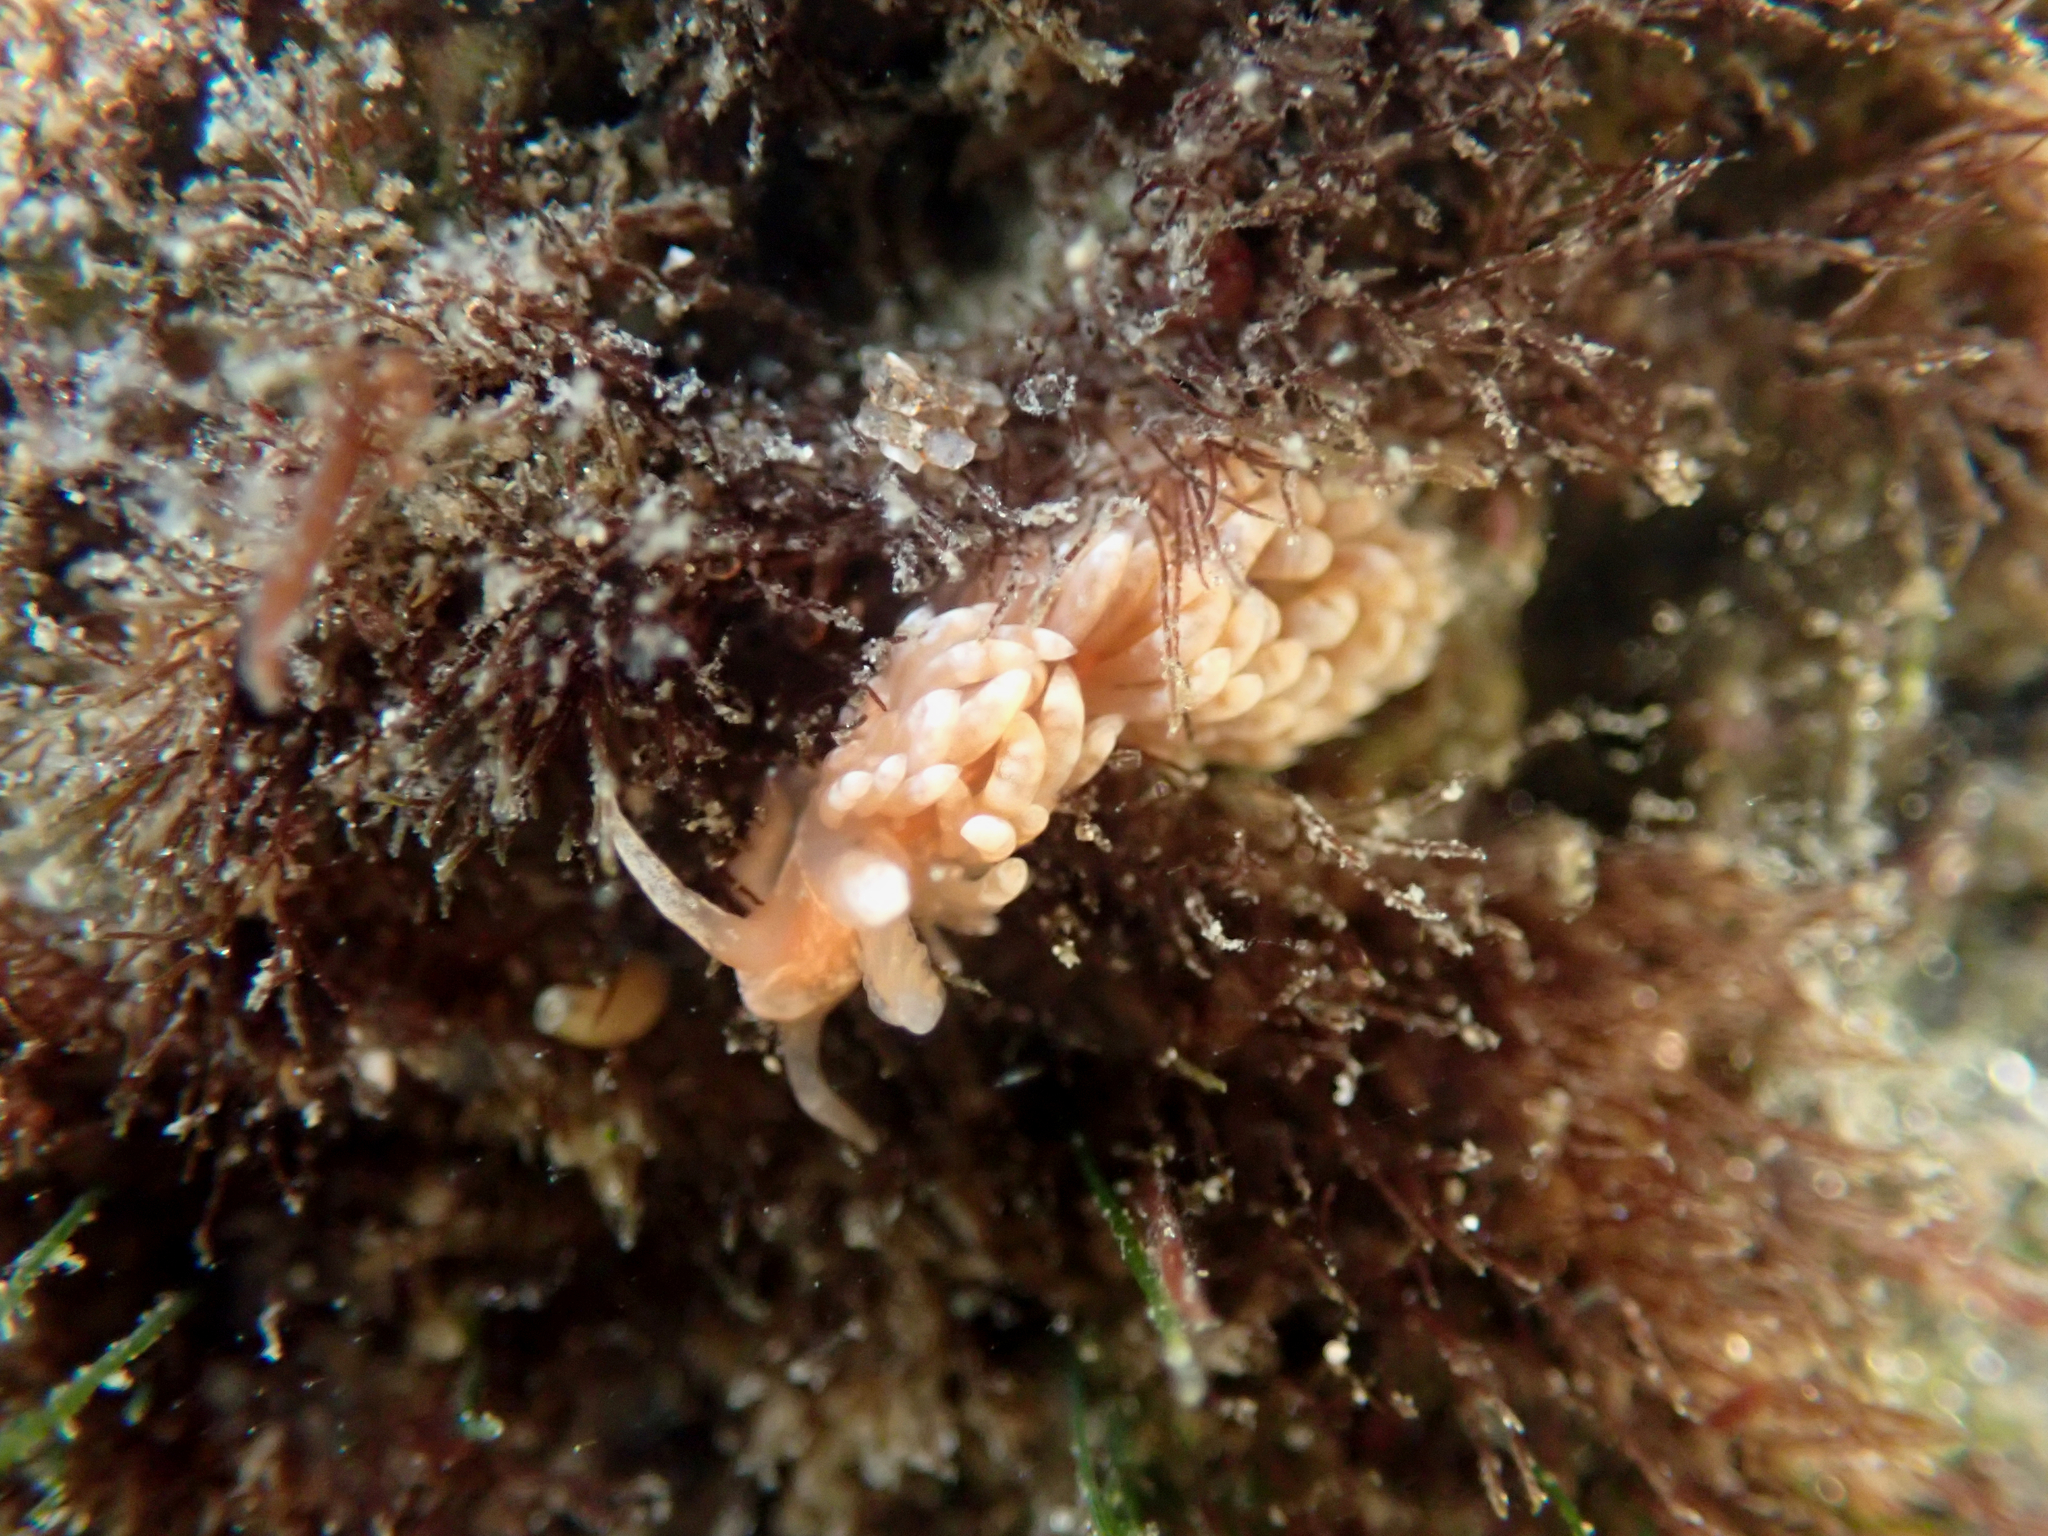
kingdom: Animalia
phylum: Mollusca
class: Gastropoda
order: Nudibranchia
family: Aeolidiidae
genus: Anteaeolidiella
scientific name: Anteaeolidiella chromosoma
